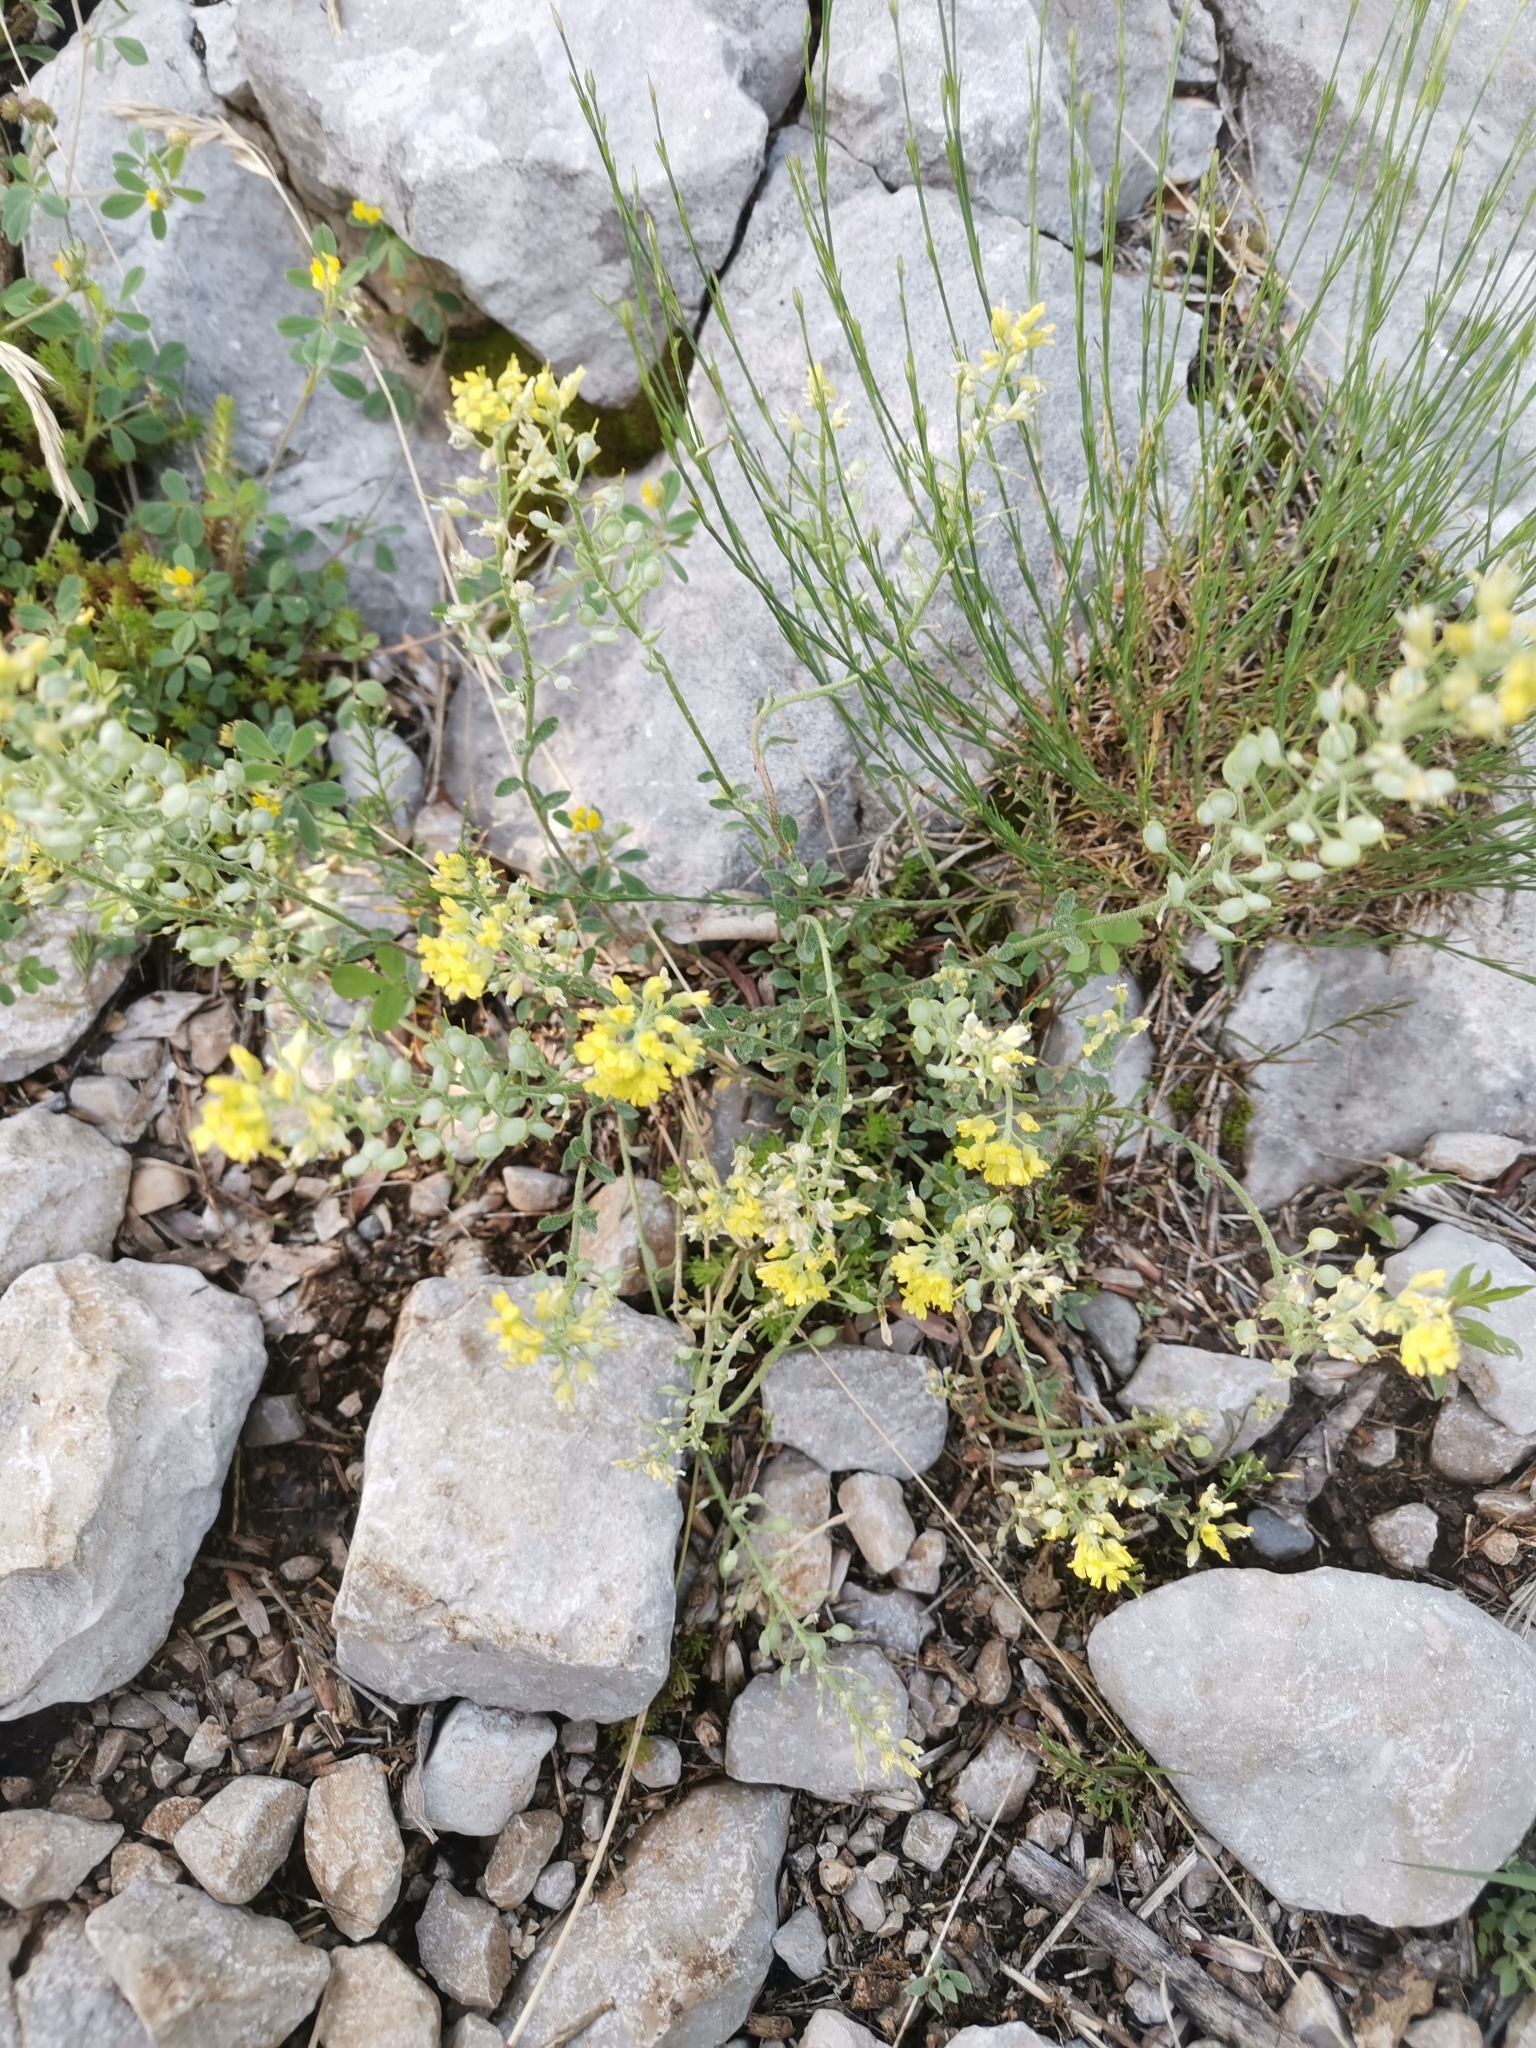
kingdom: Plantae
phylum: Tracheophyta
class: Magnoliopsida
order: Brassicales
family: Brassicaceae
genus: Alyssum
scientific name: Alyssum austrodalmaticum
